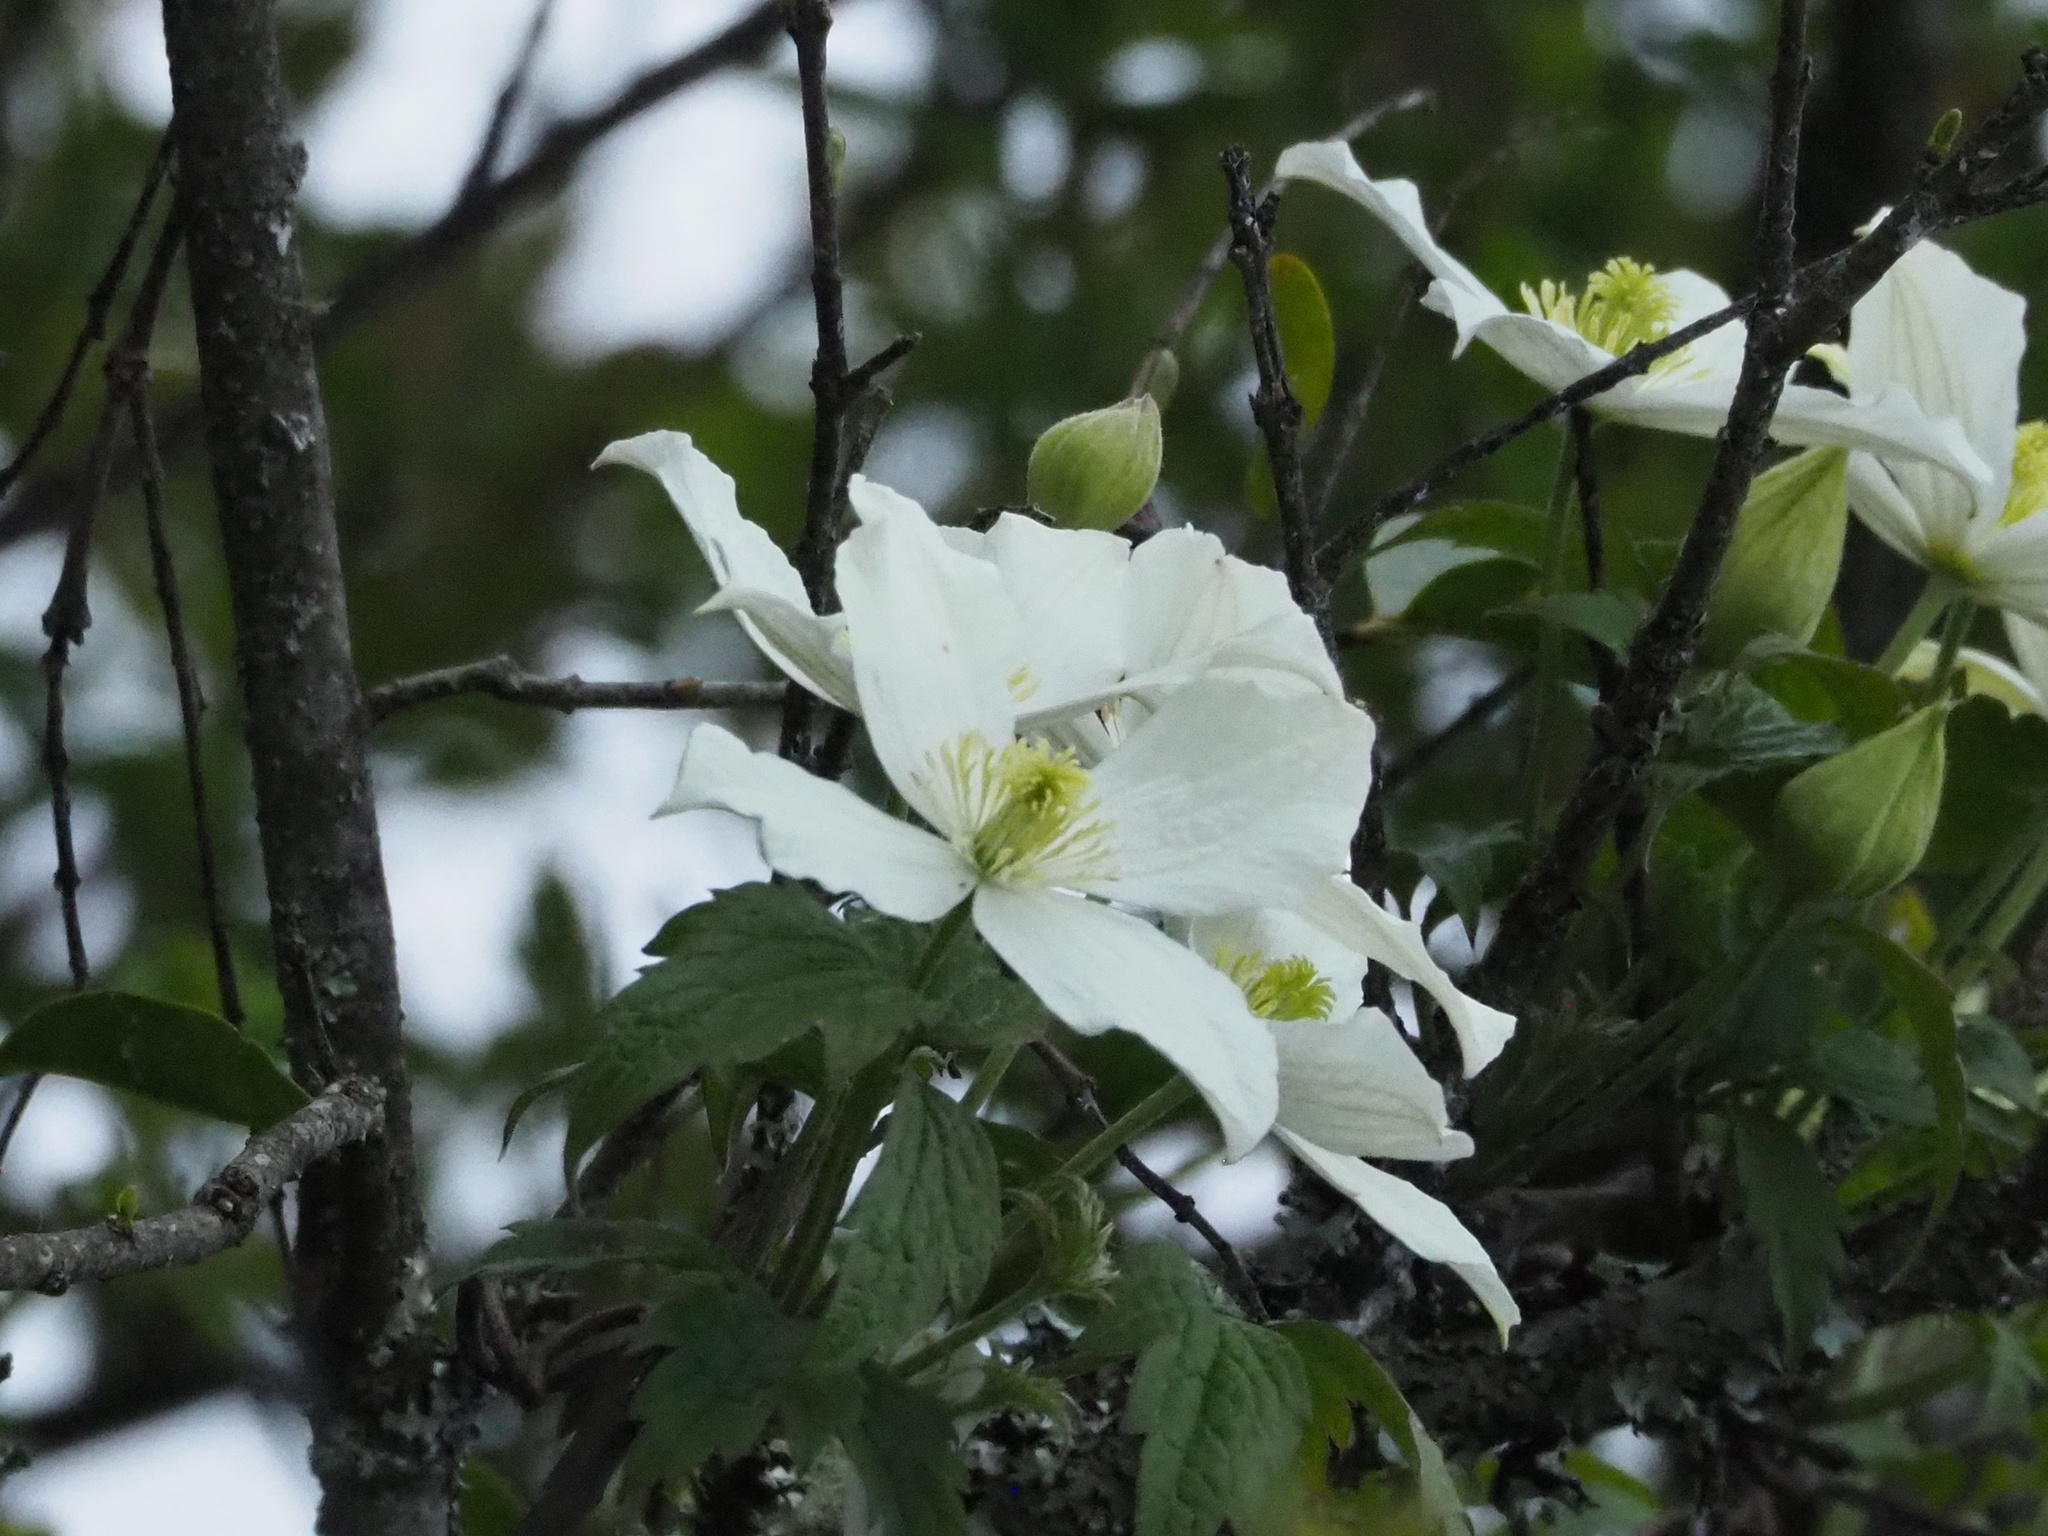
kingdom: Plantae
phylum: Tracheophyta
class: Magnoliopsida
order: Ranunculales
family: Ranunculaceae
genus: Clematis
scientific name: Clematis montana
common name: Himalayan clematis
